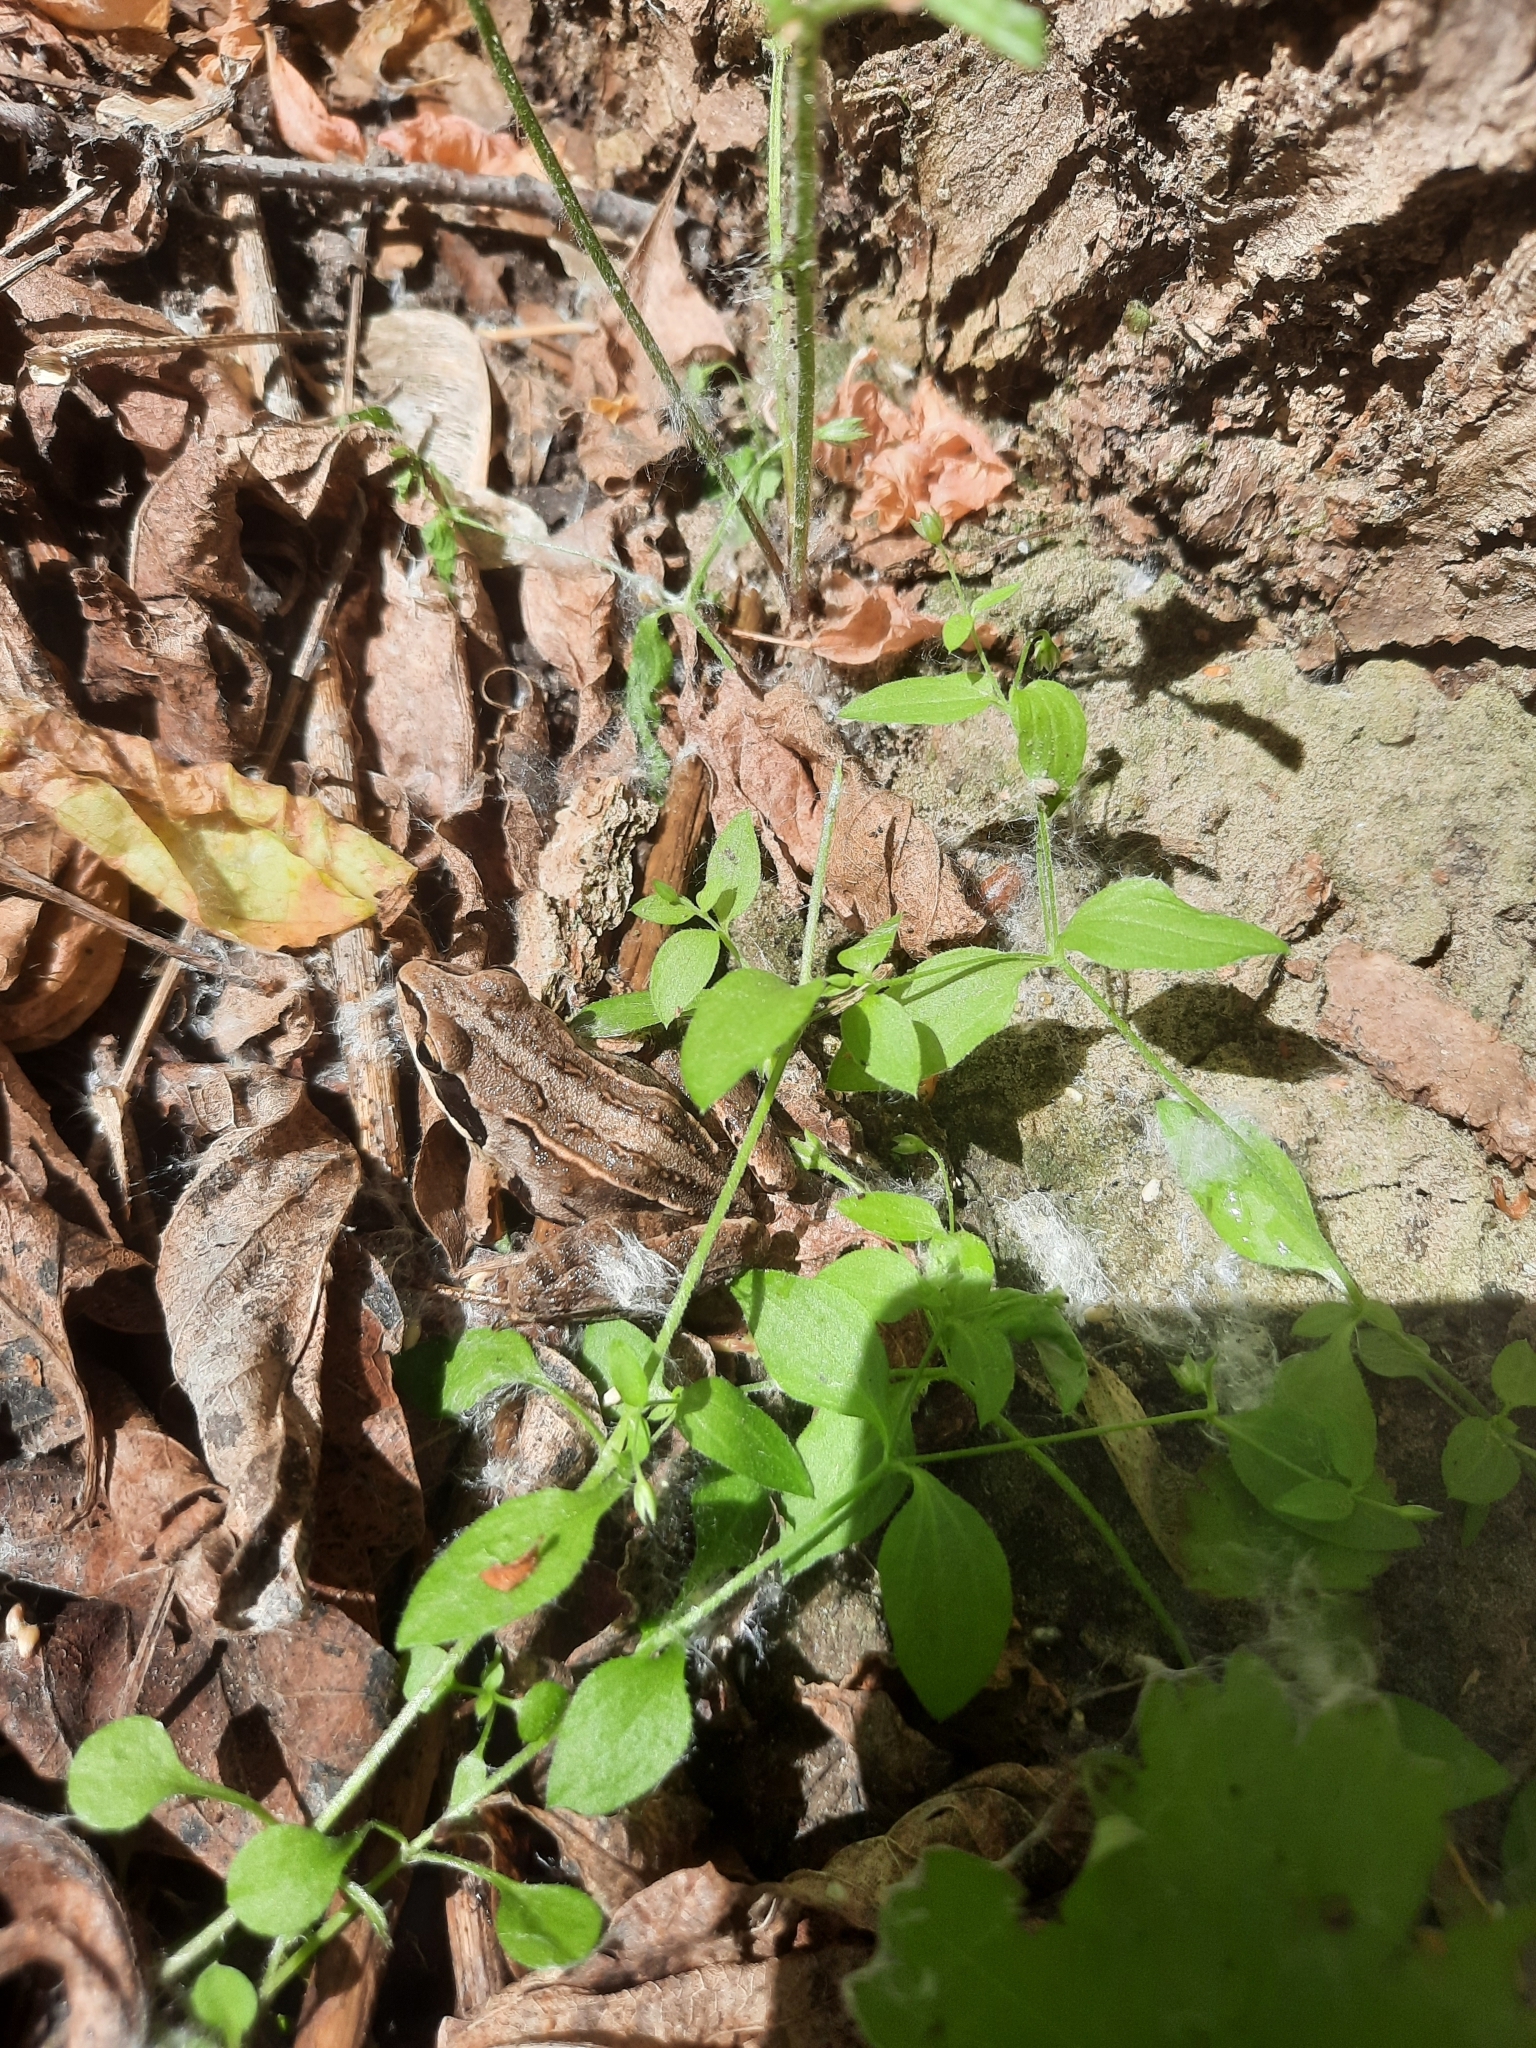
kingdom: Animalia
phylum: Chordata
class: Amphibia
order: Anura
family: Ranidae
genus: Rana
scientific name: Rana arvalis
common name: Moor frog
